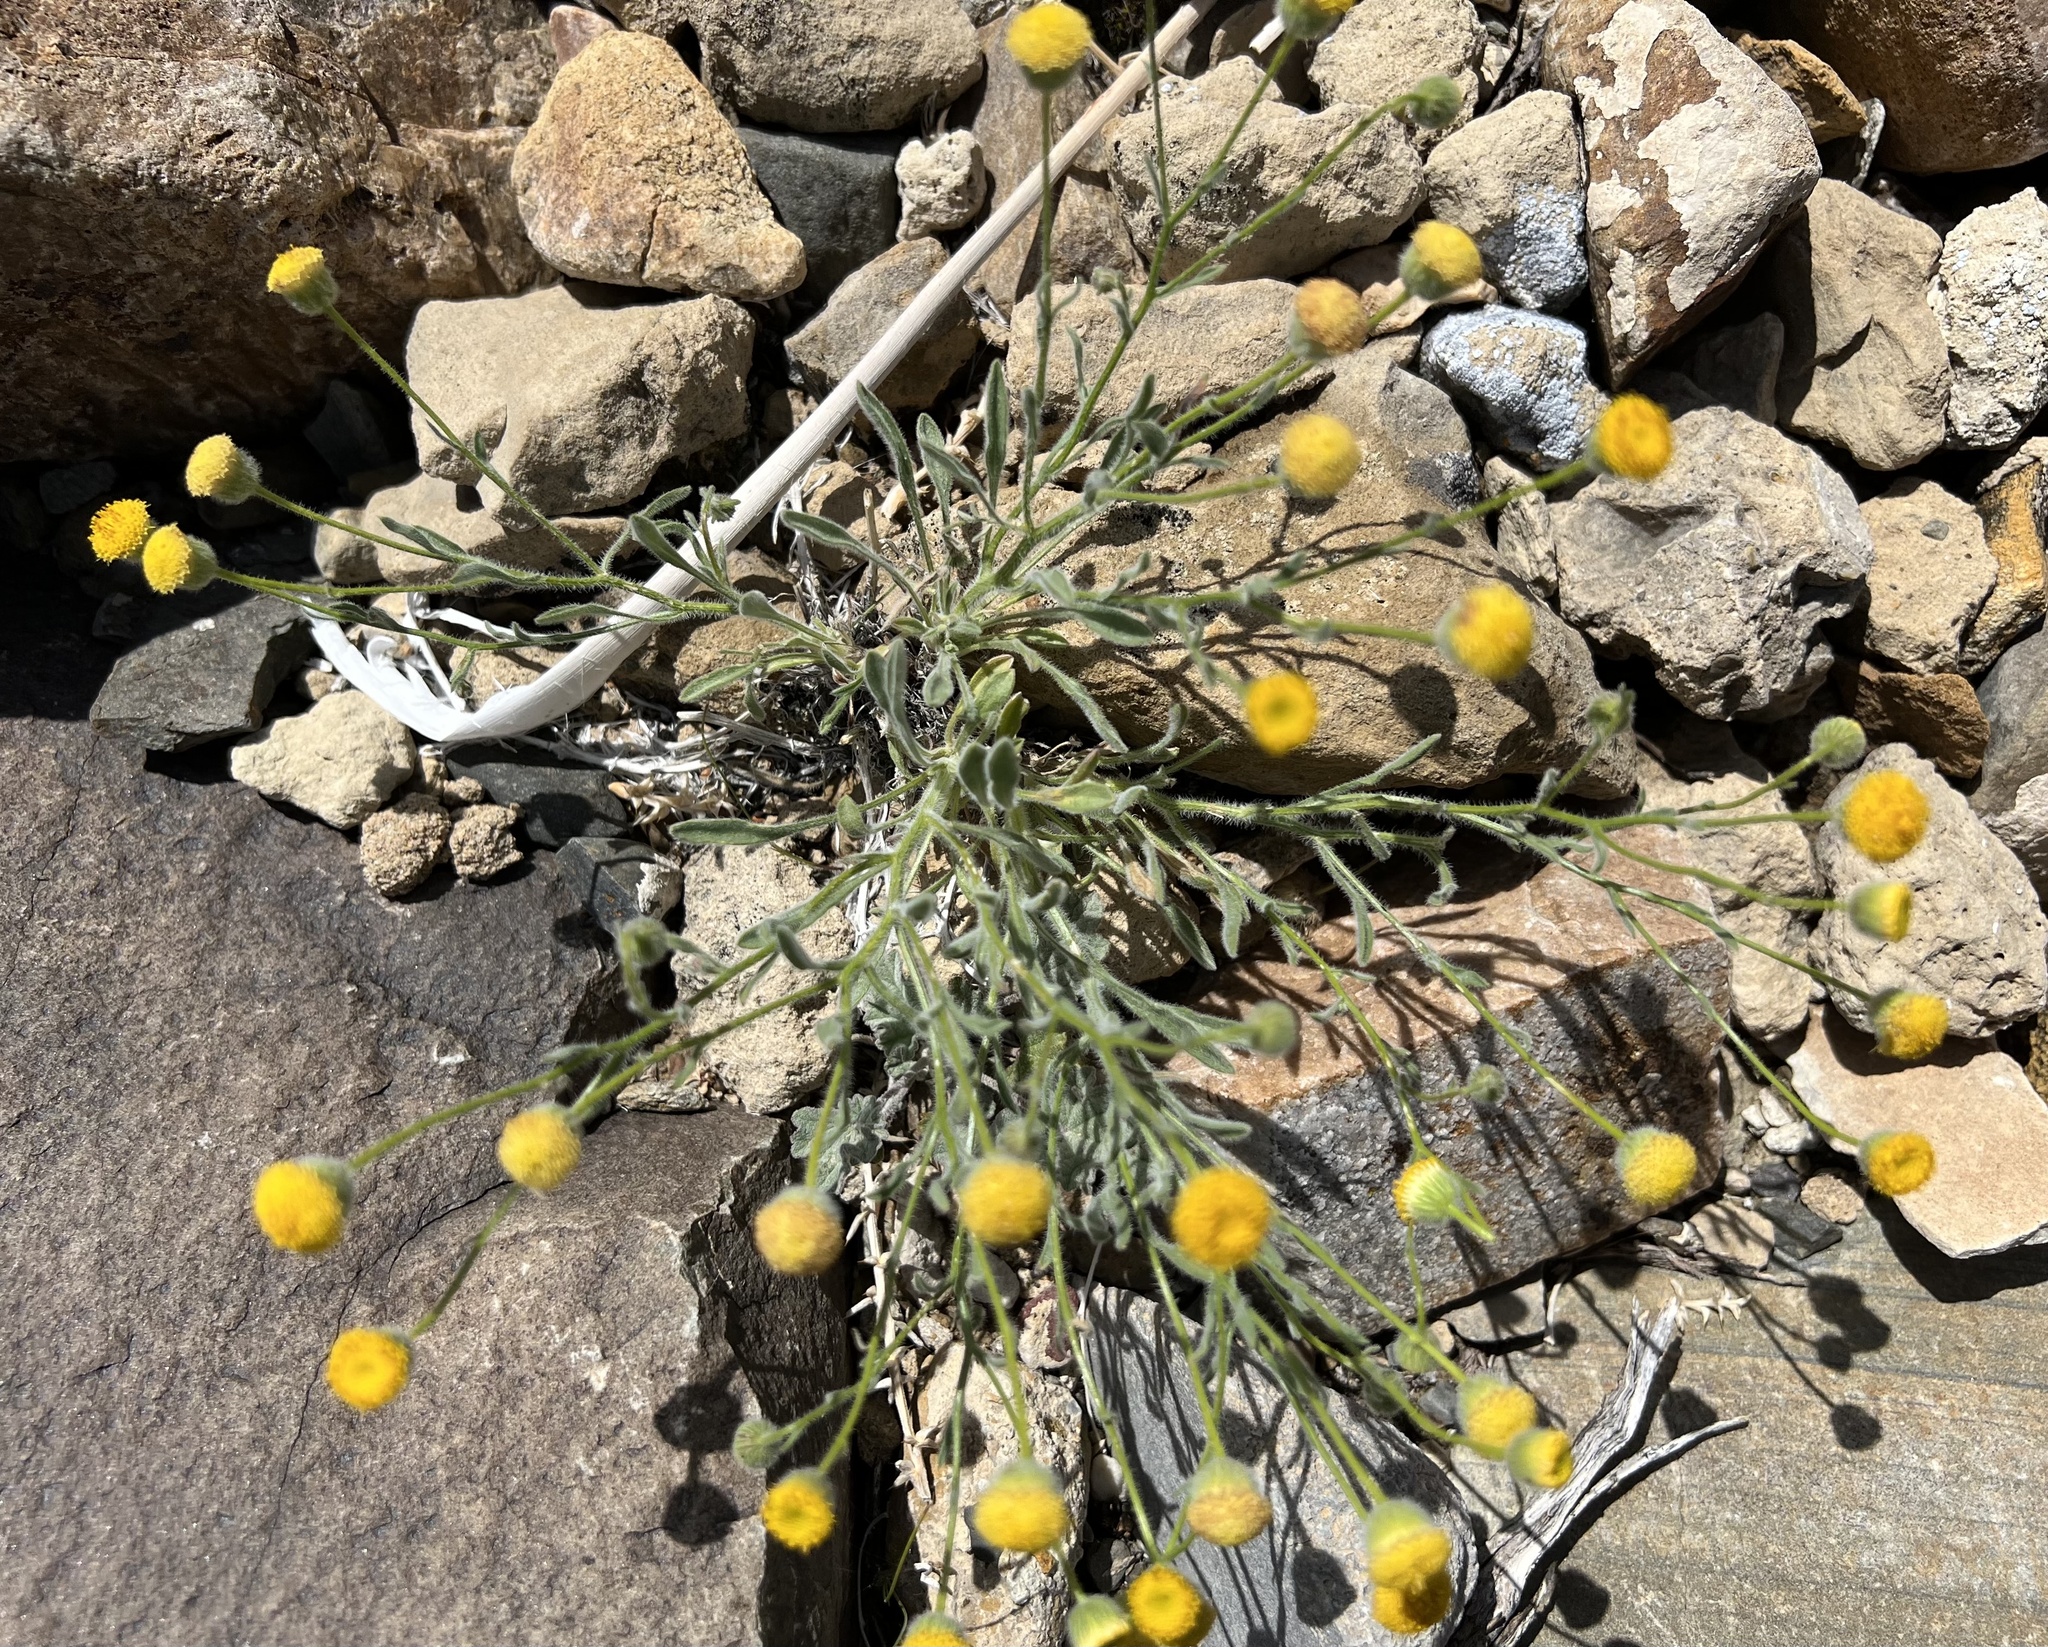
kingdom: Plantae
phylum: Tracheophyta
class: Magnoliopsida
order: Asterales
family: Asteraceae
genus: Erigeron
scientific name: Erigeron aphanactis
